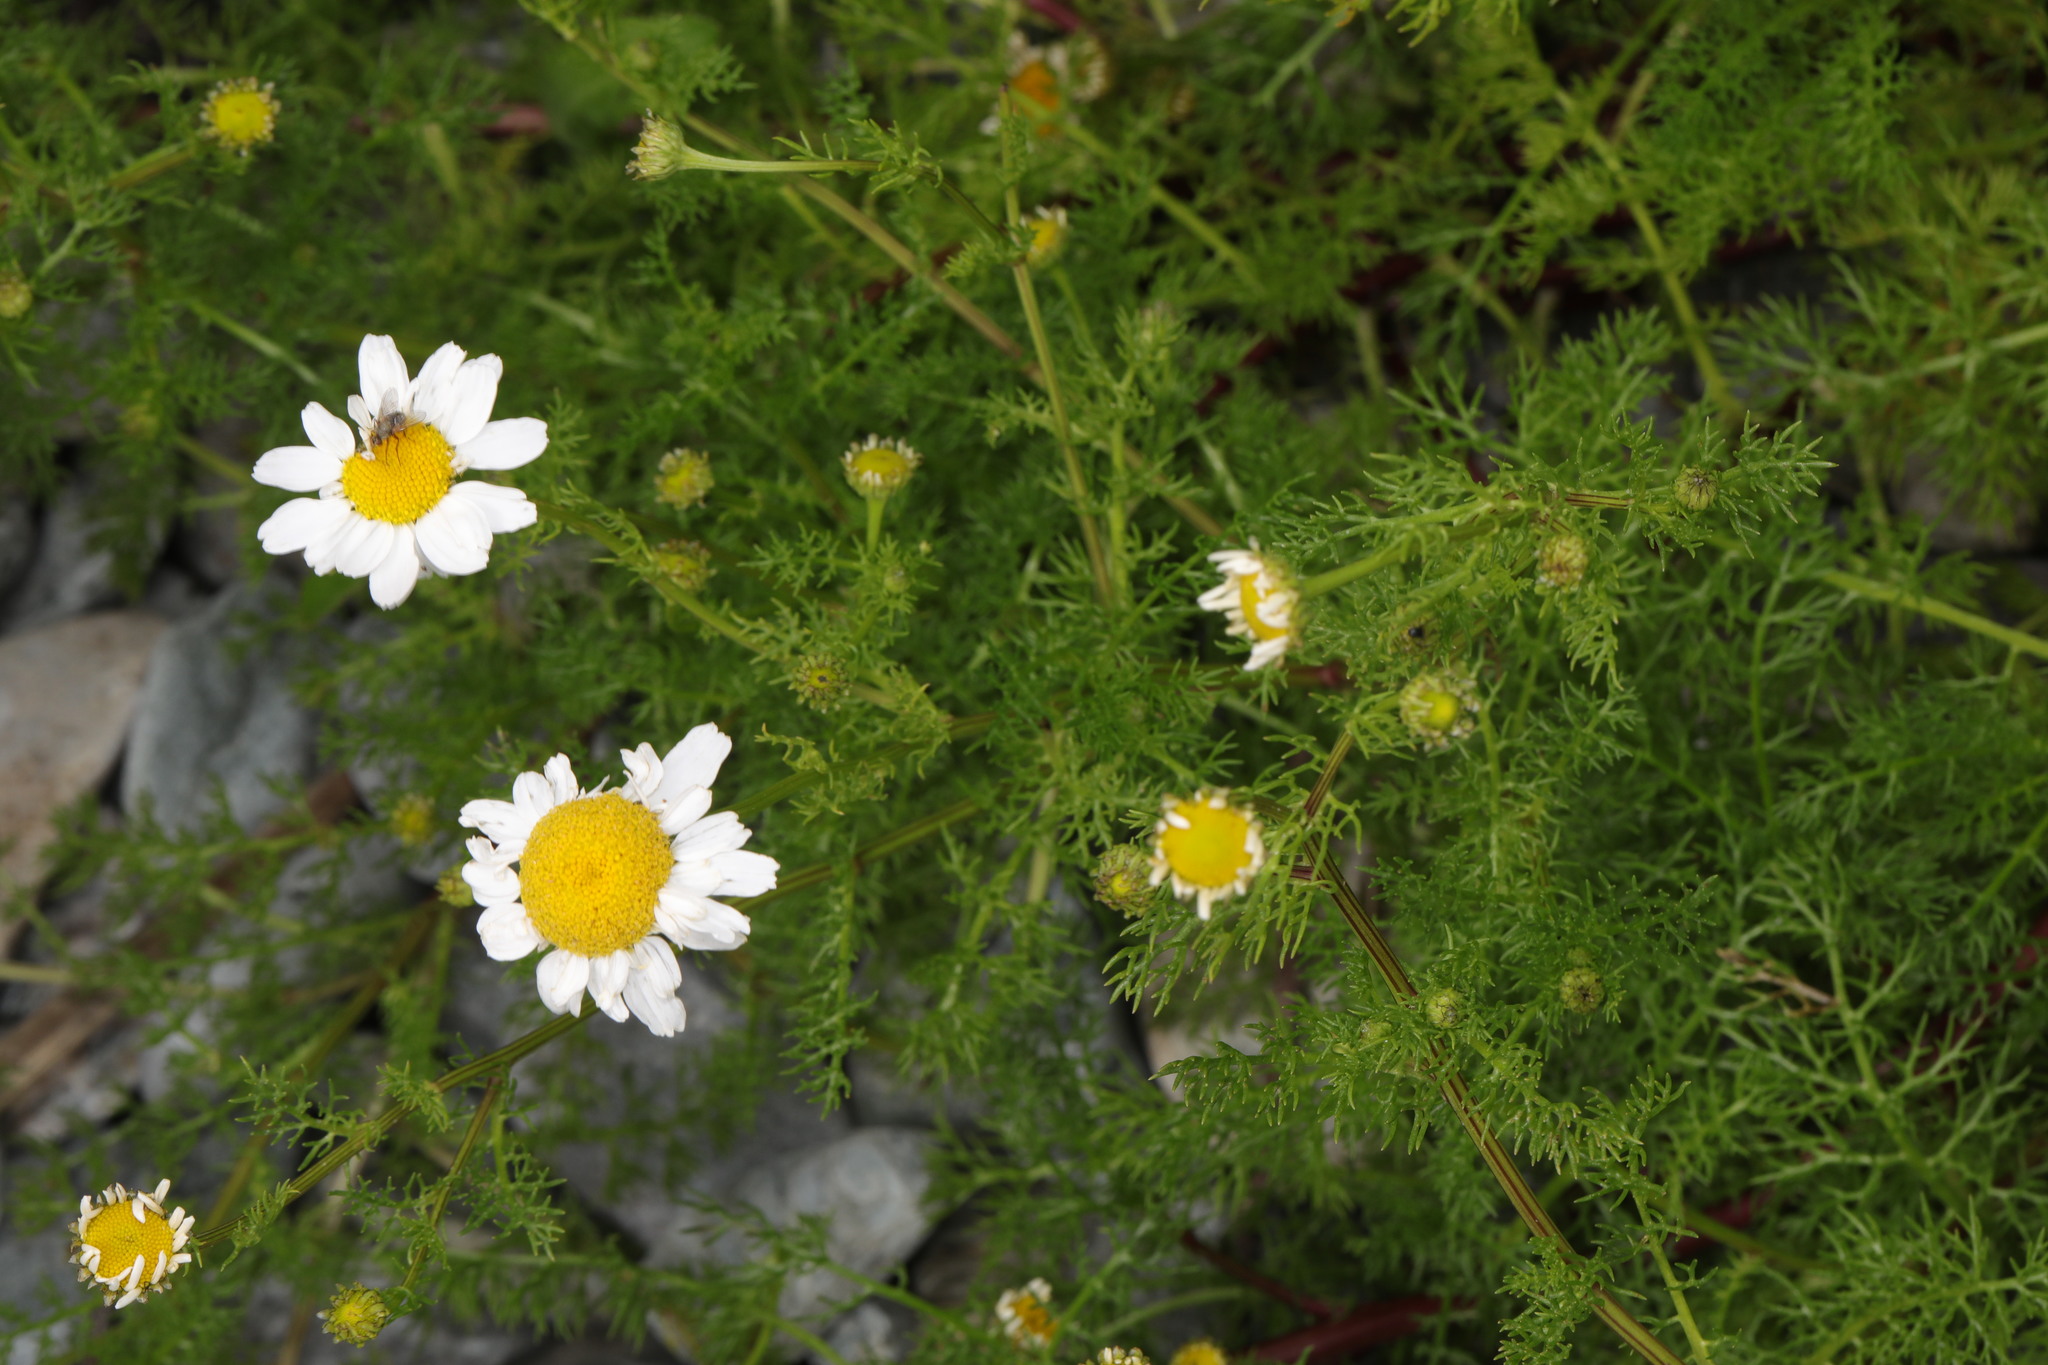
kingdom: Plantae
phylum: Tracheophyta
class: Magnoliopsida
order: Asterales
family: Asteraceae
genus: Tripleurospermum
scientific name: Tripleurospermum maritimum
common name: Sea mayweed
